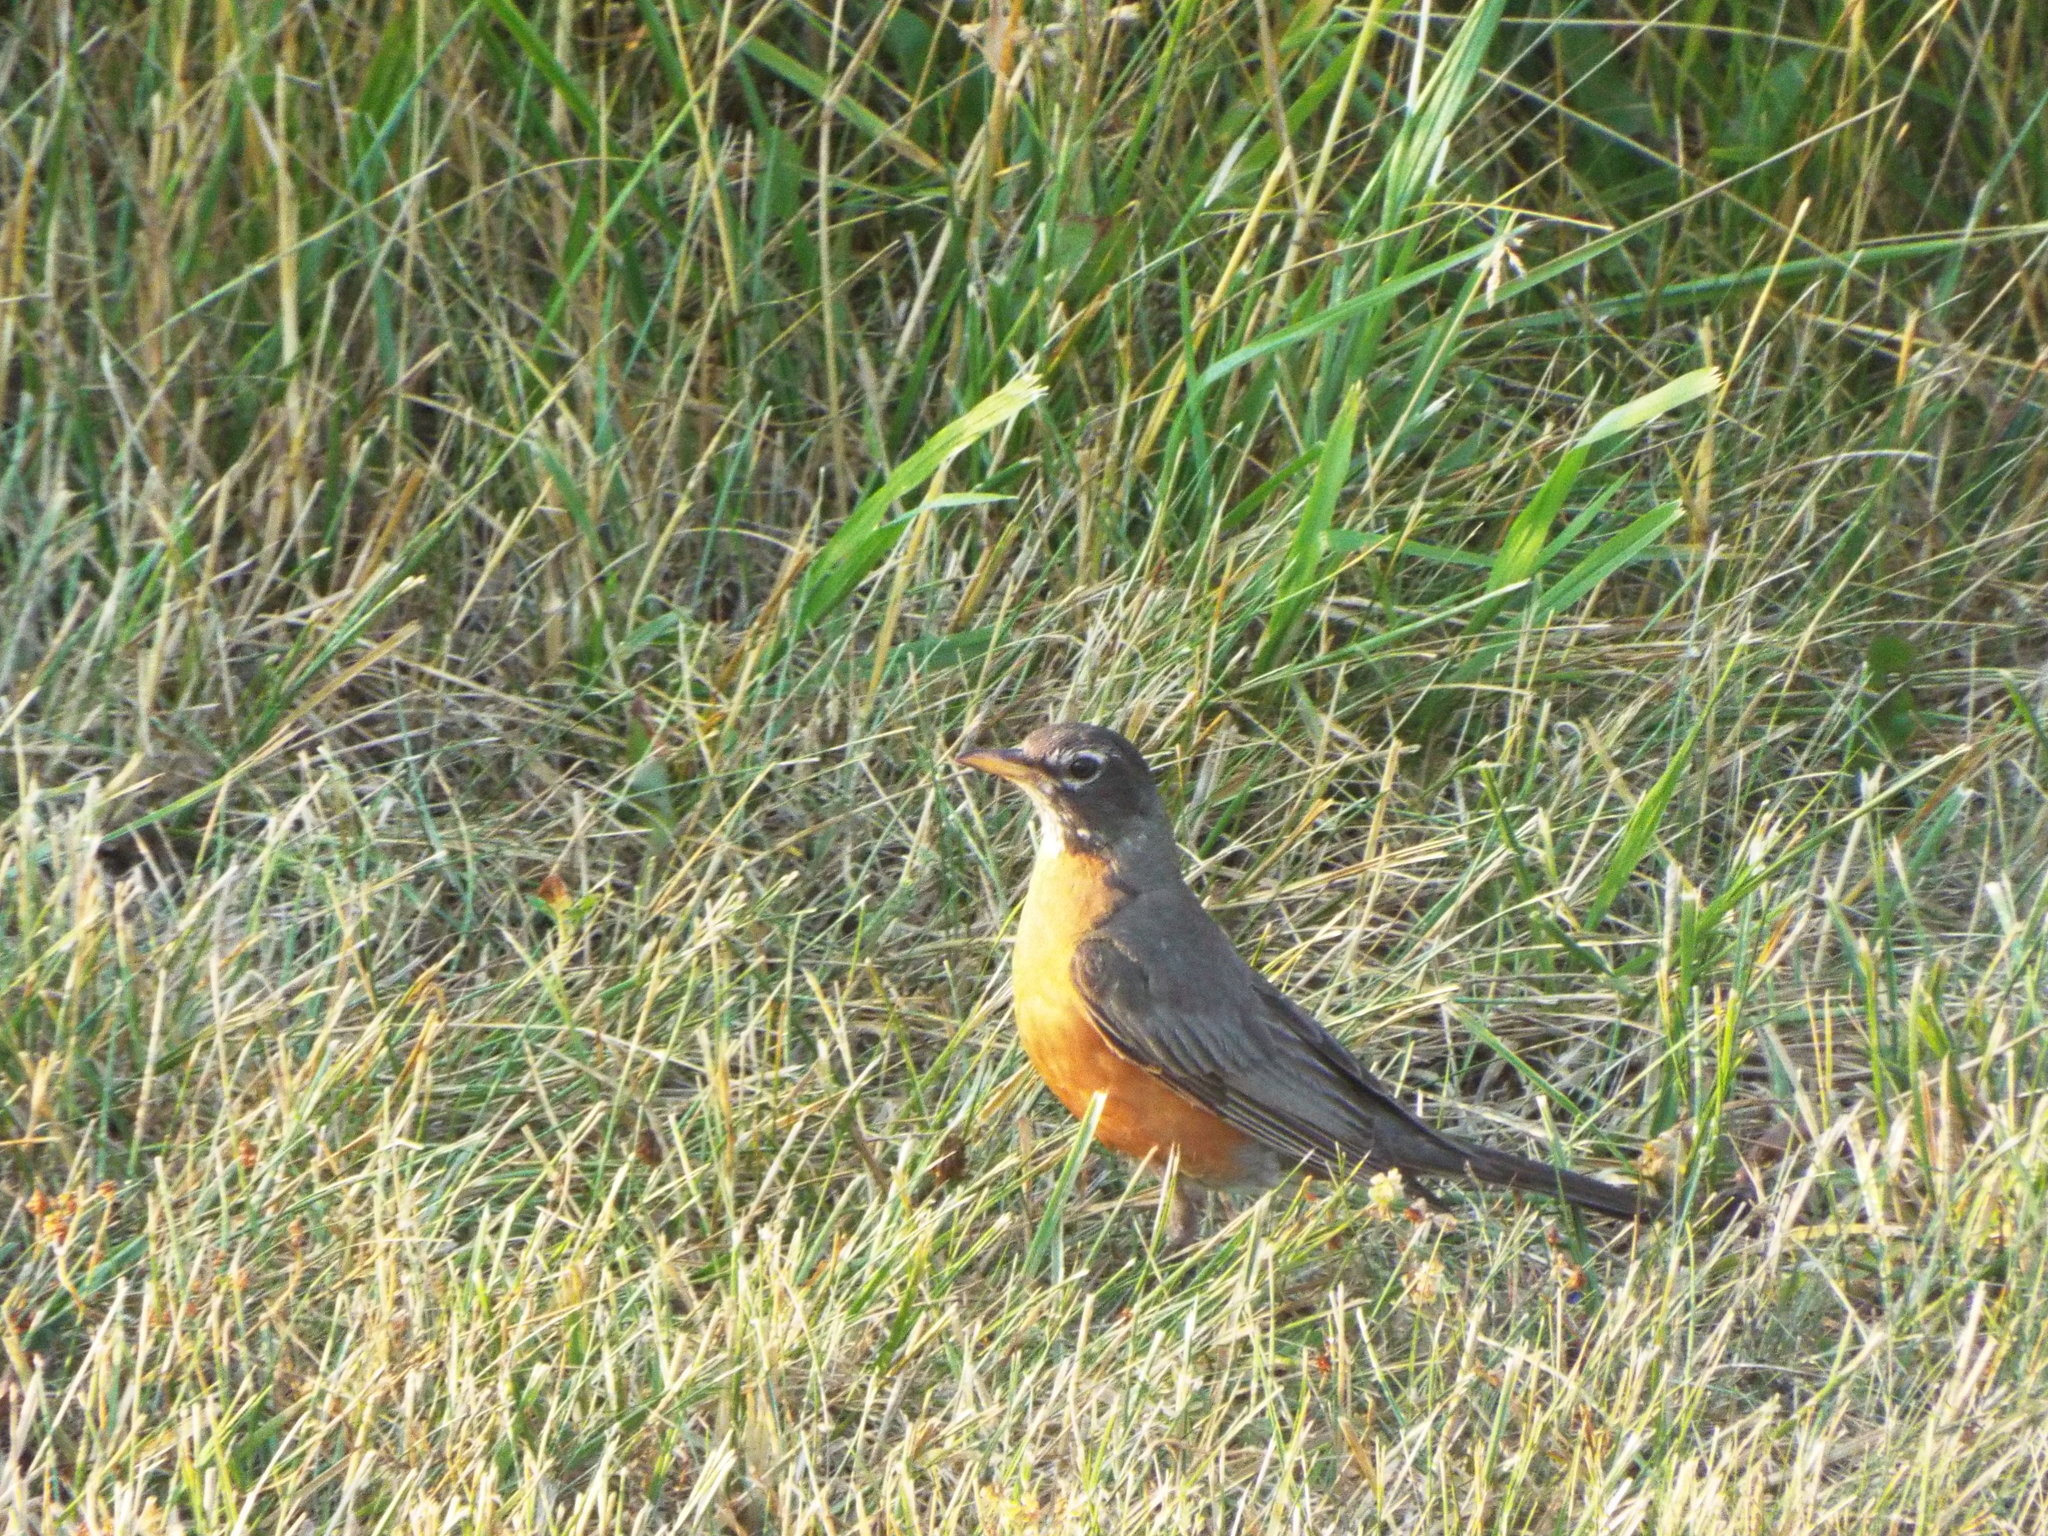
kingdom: Animalia
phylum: Chordata
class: Aves
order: Passeriformes
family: Turdidae
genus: Turdus
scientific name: Turdus migratorius
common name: American robin
